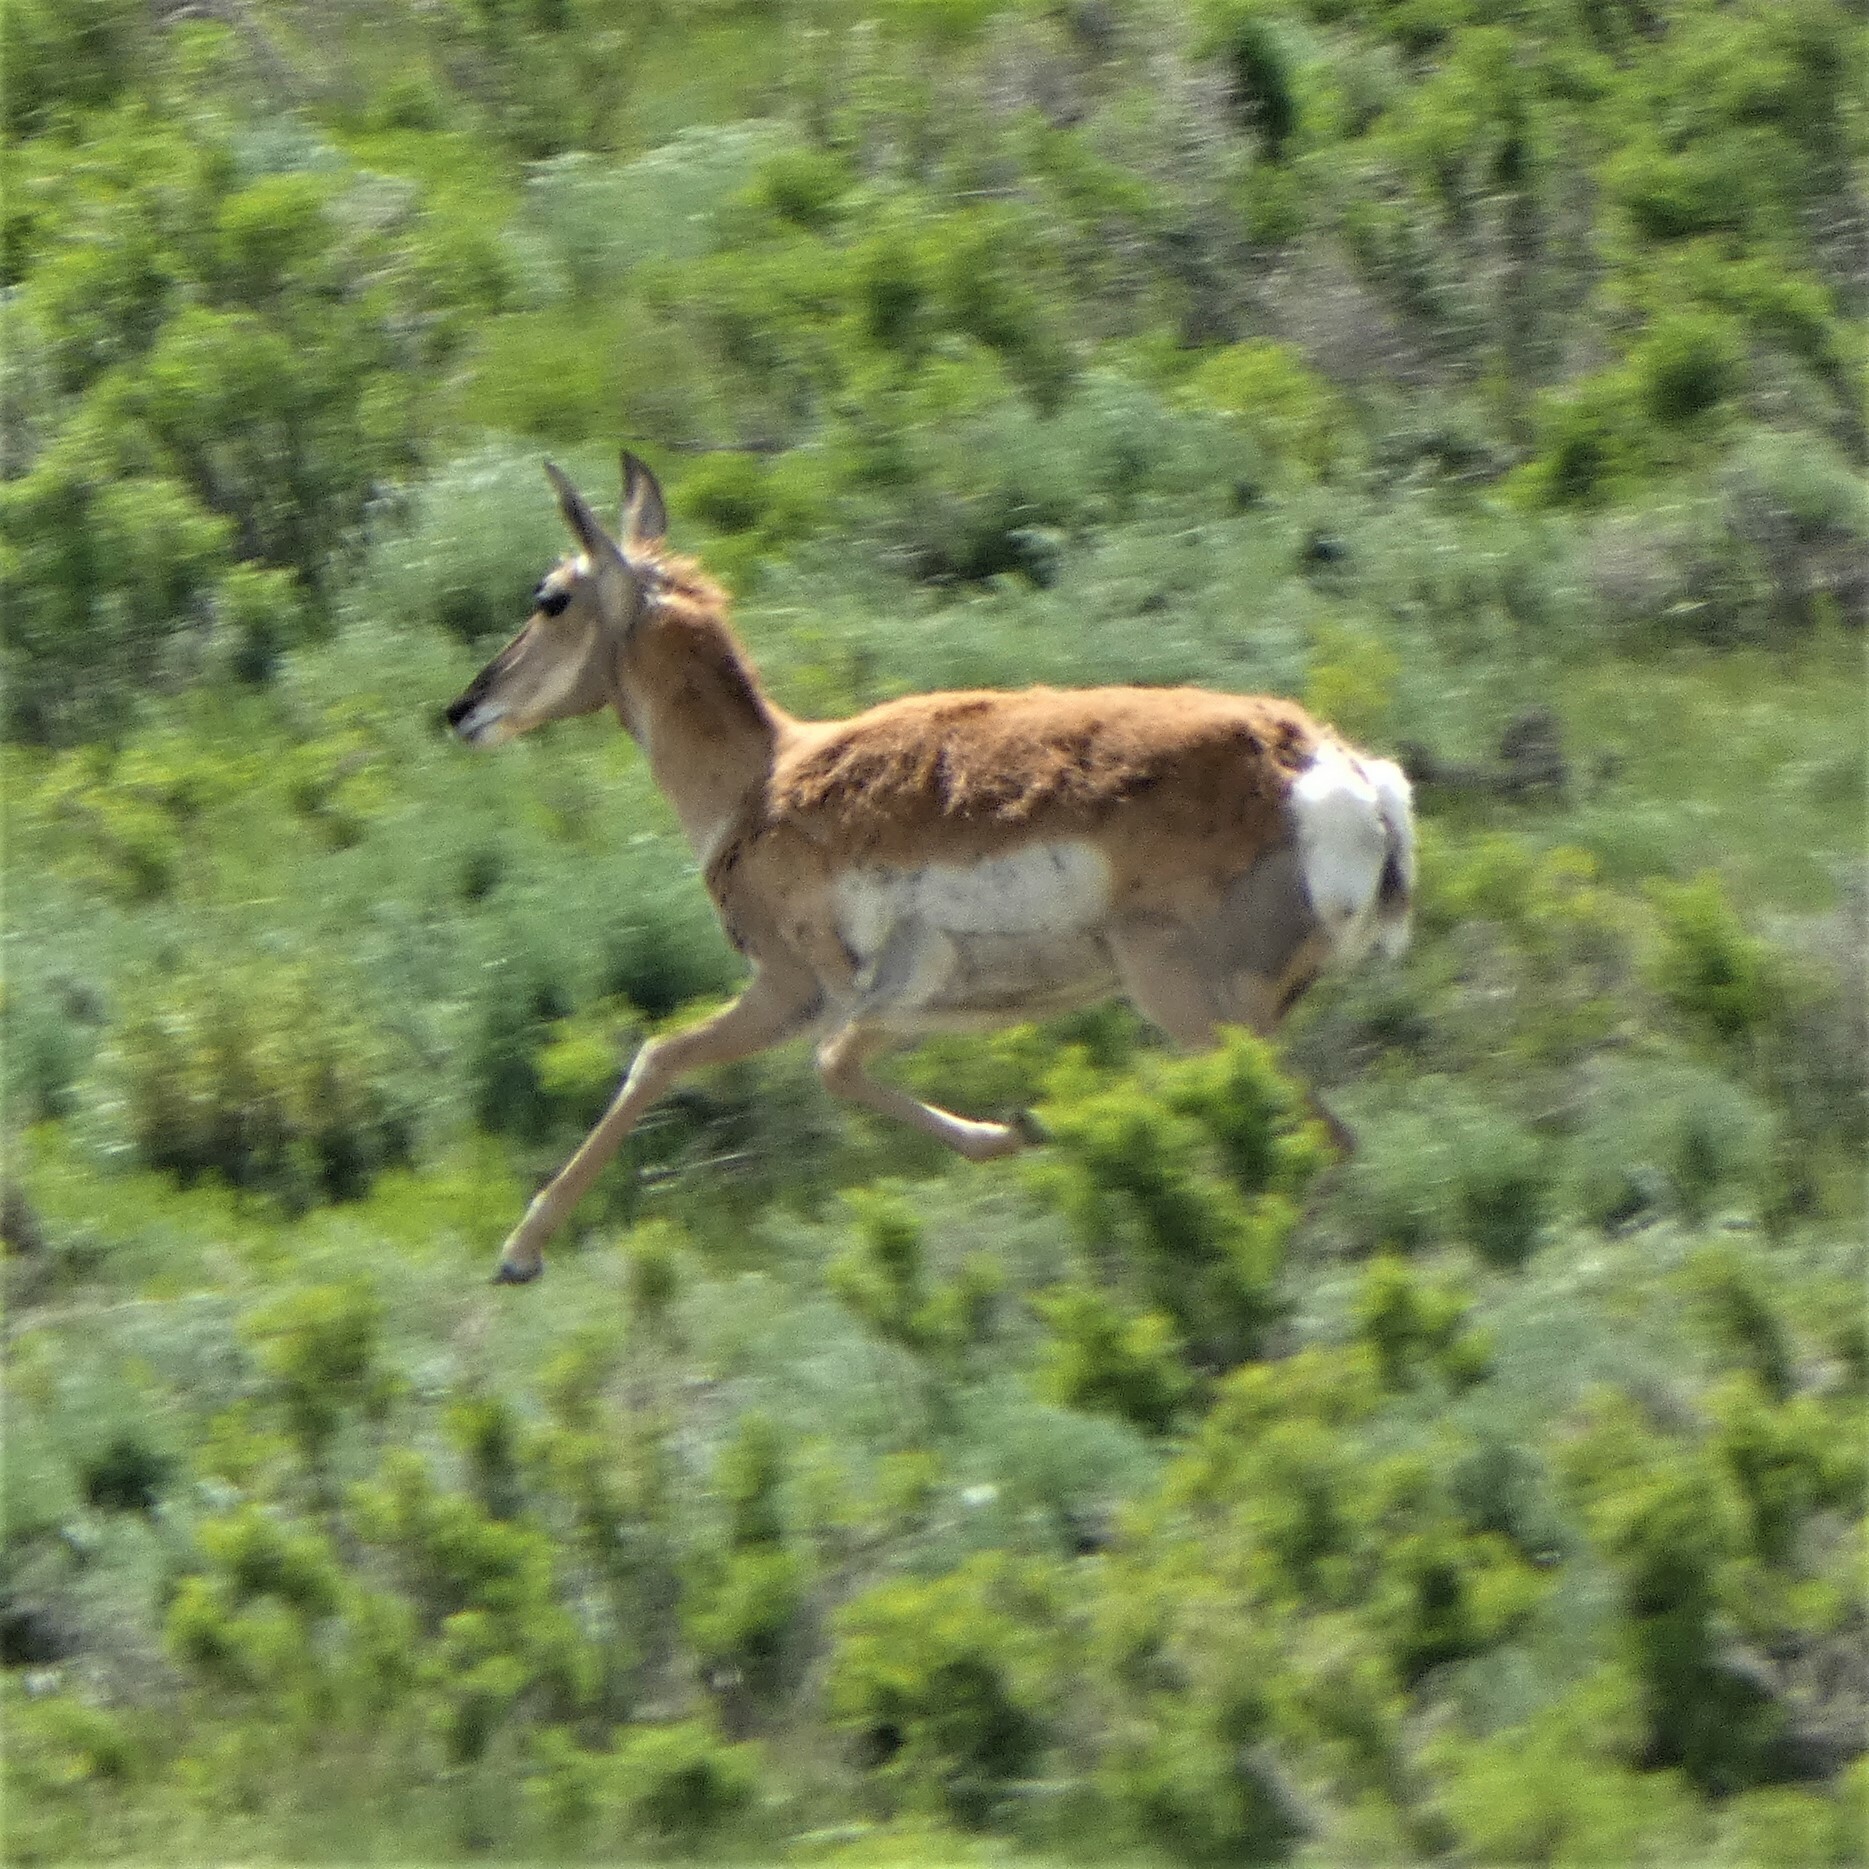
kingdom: Animalia
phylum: Chordata
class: Mammalia
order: Artiodactyla
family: Antilocapridae
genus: Antilocapra
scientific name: Antilocapra americana
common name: Pronghorn
